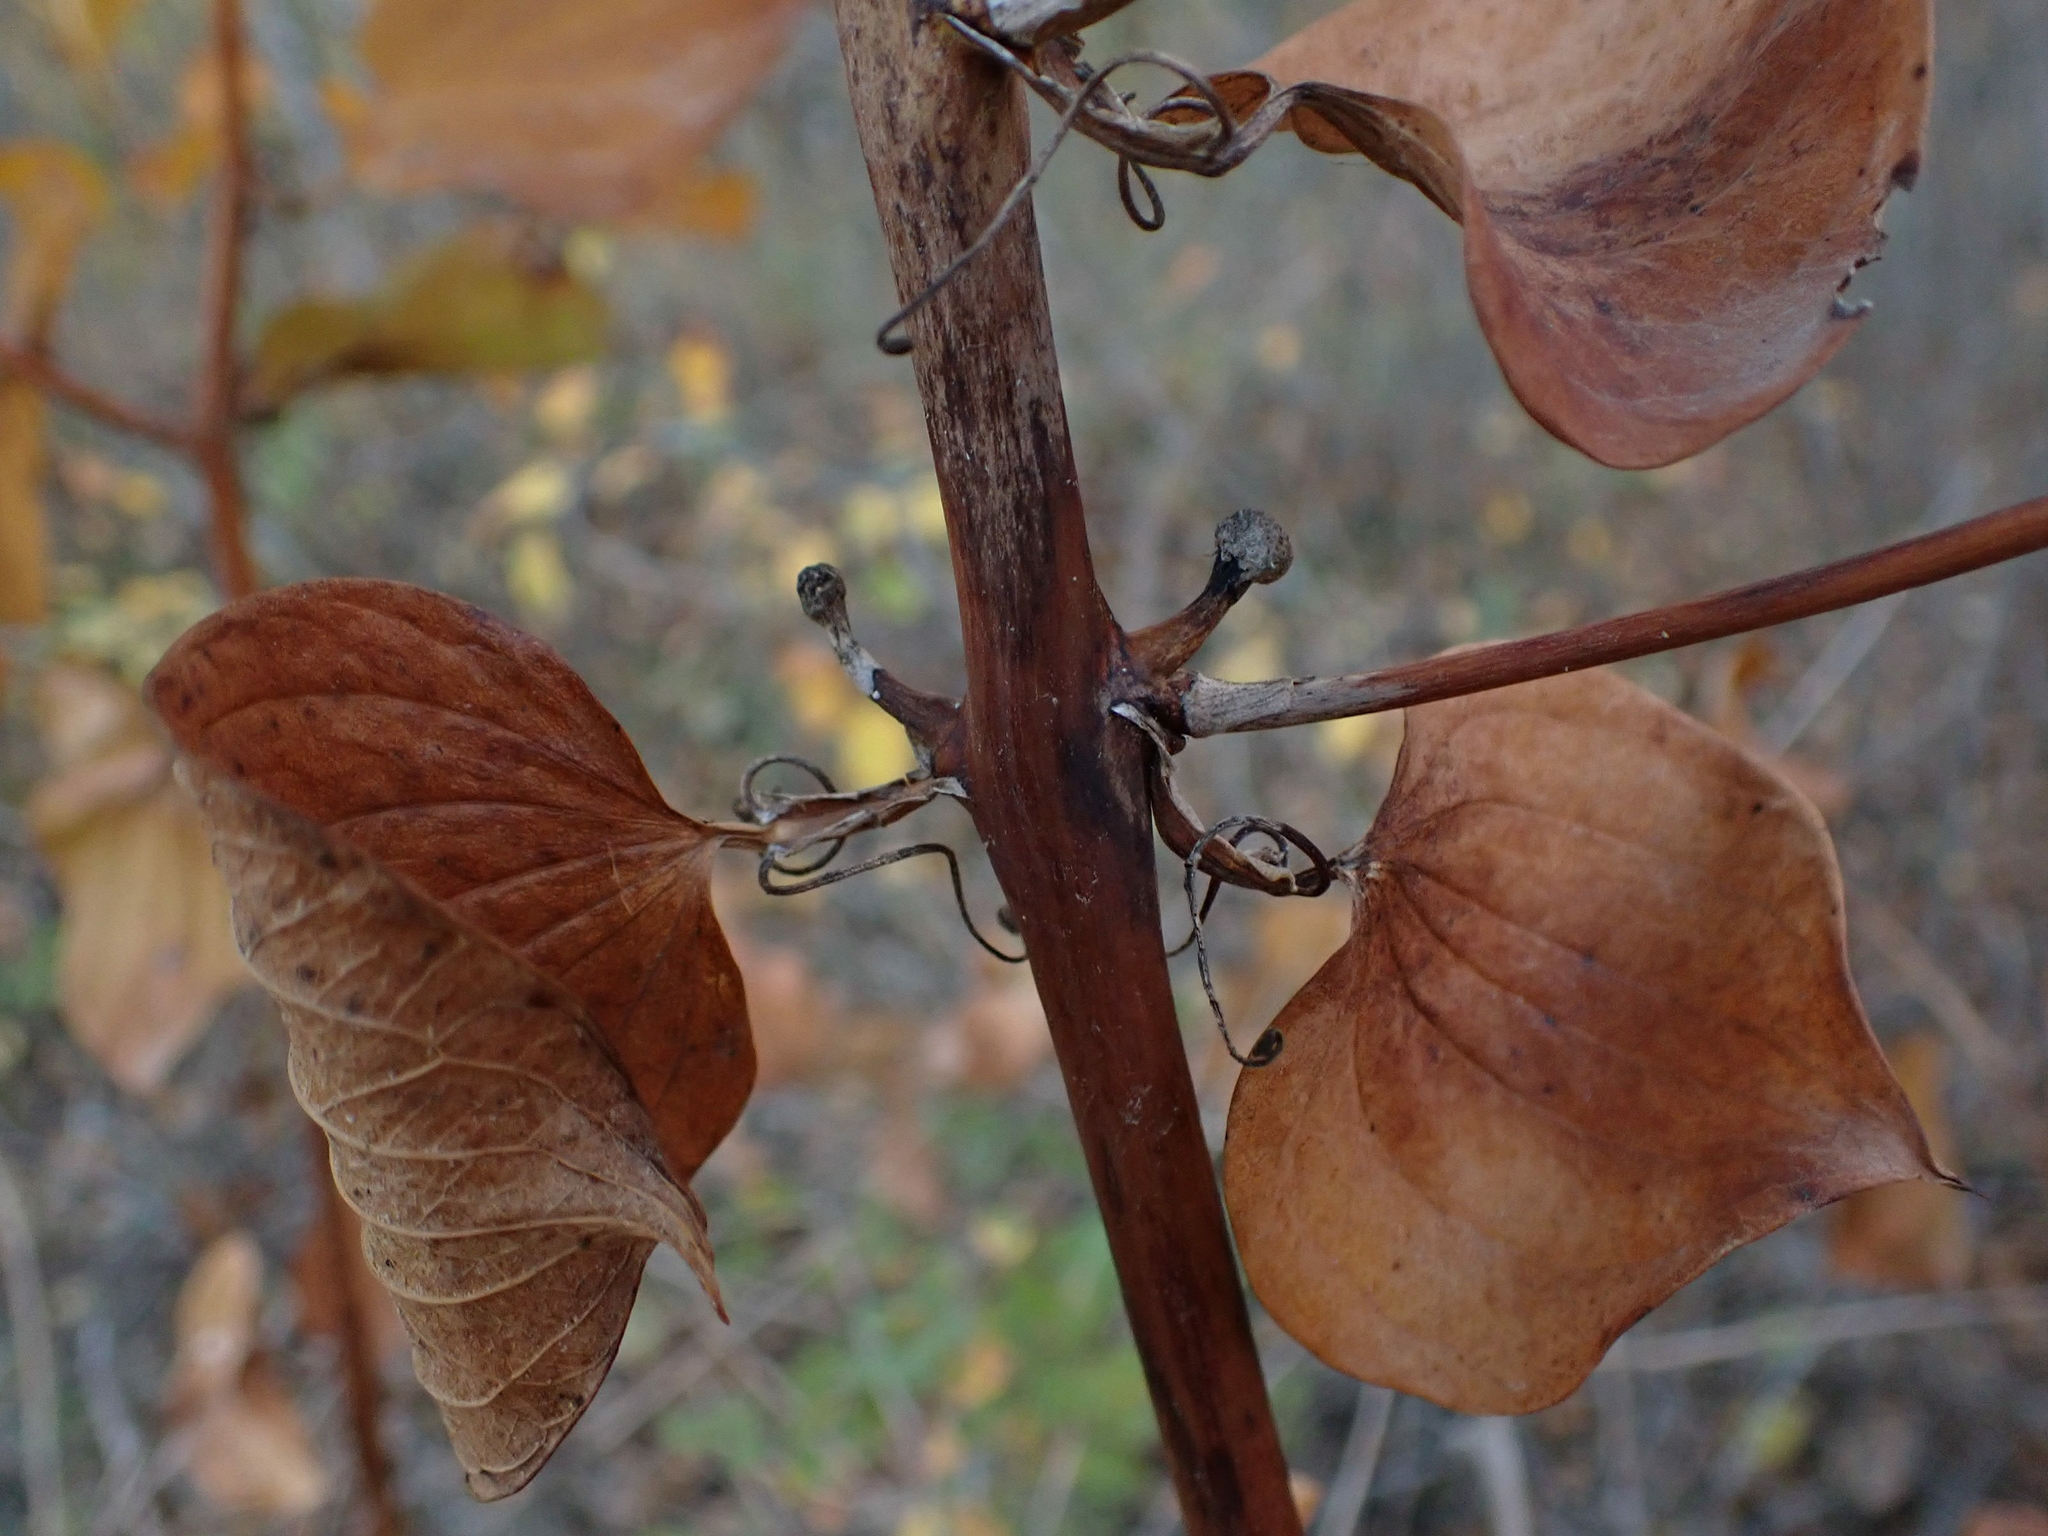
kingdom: Plantae
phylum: Tracheophyta
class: Liliopsida
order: Liliales
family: Smilacaceae
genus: Smilax
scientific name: Smilax lasioneura
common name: Blue ridge carrionflower
